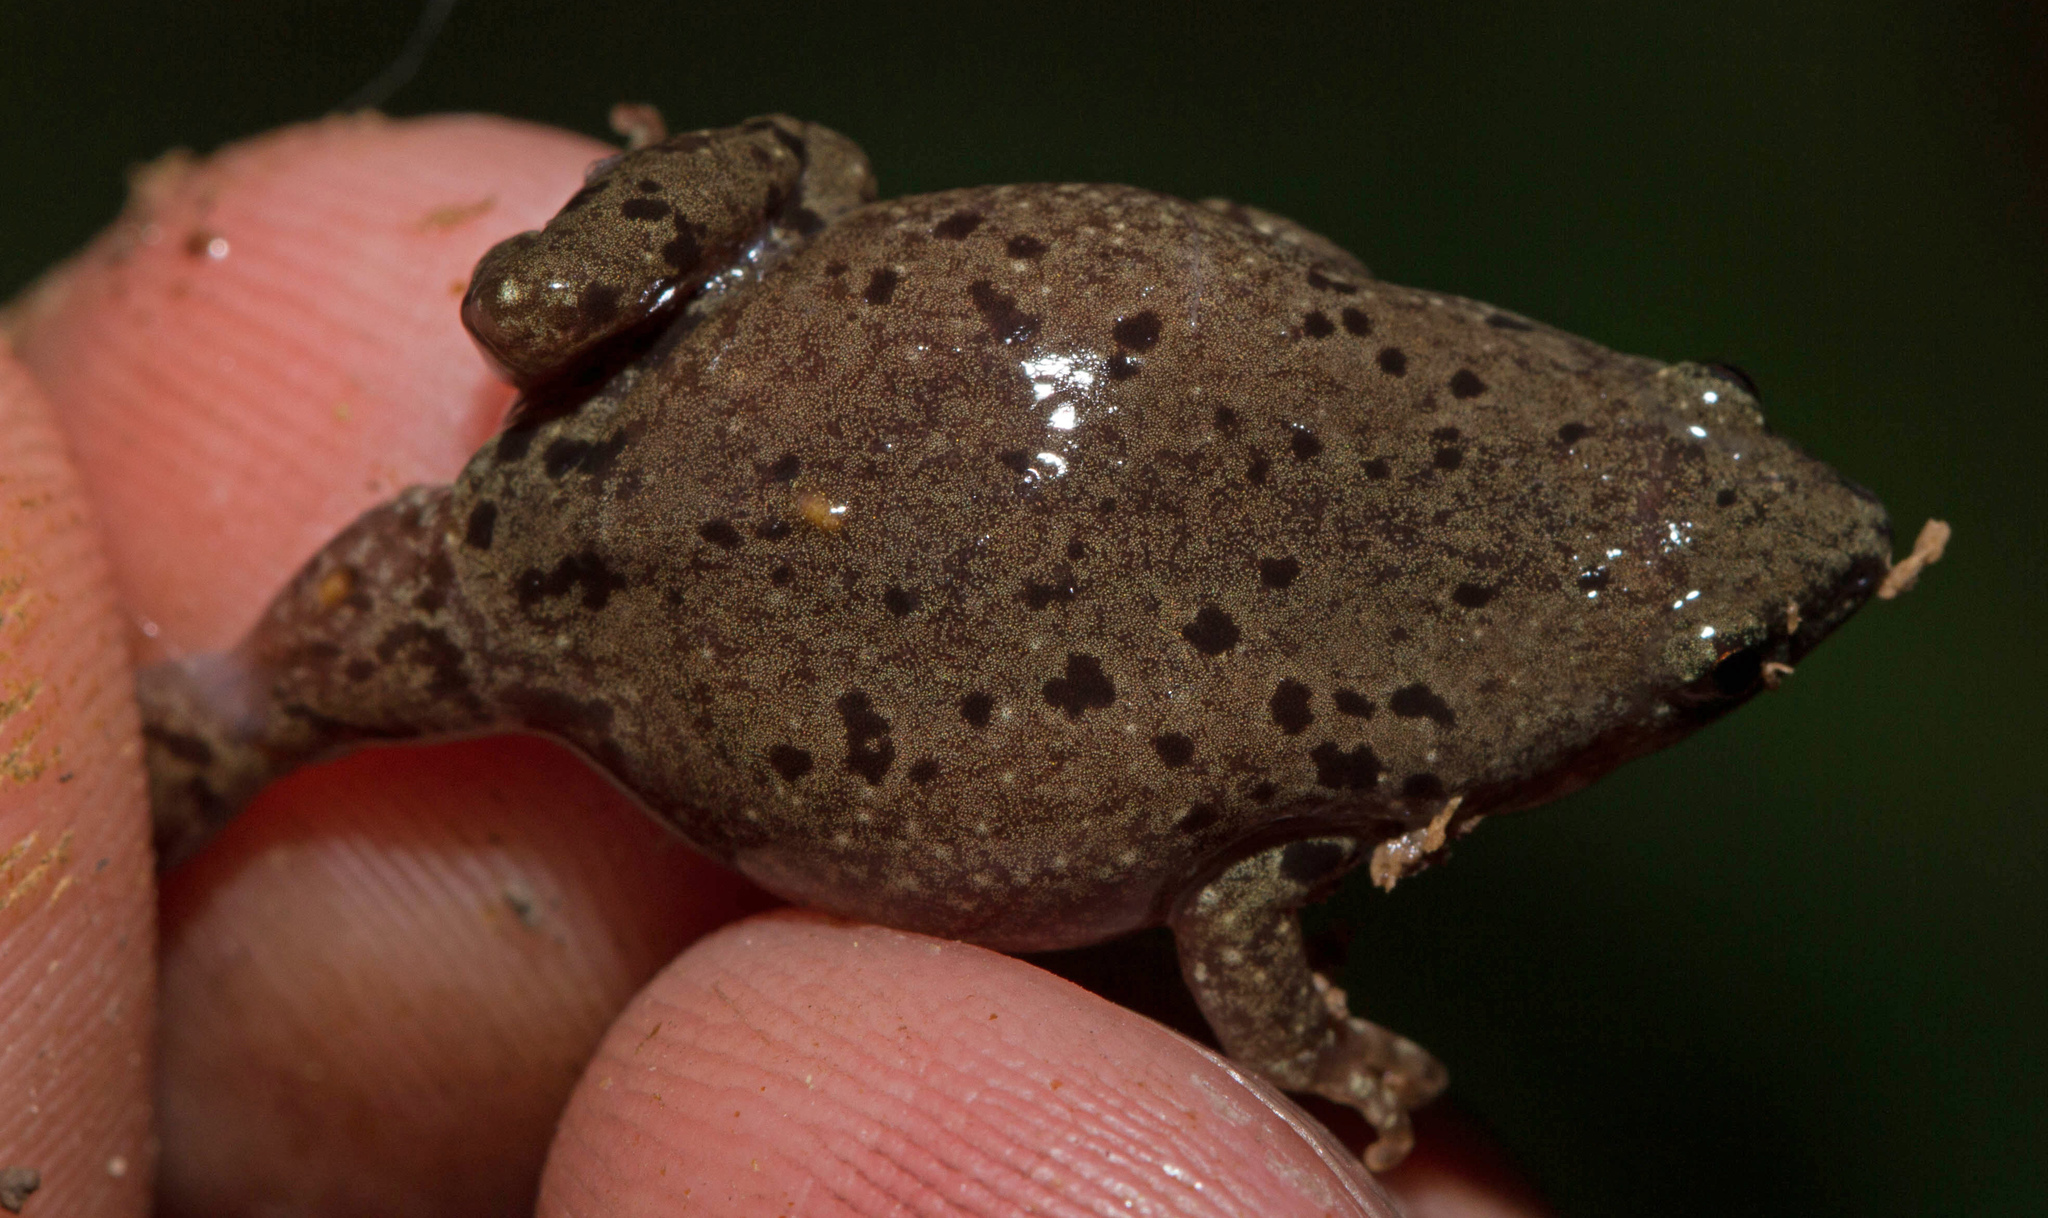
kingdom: Animalia
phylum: Chordata
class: Amphibia
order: Anura
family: Microhylidae
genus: Gastrophryne
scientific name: Gastrophryne olivacea
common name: Great plains narrow-mouthed toad
